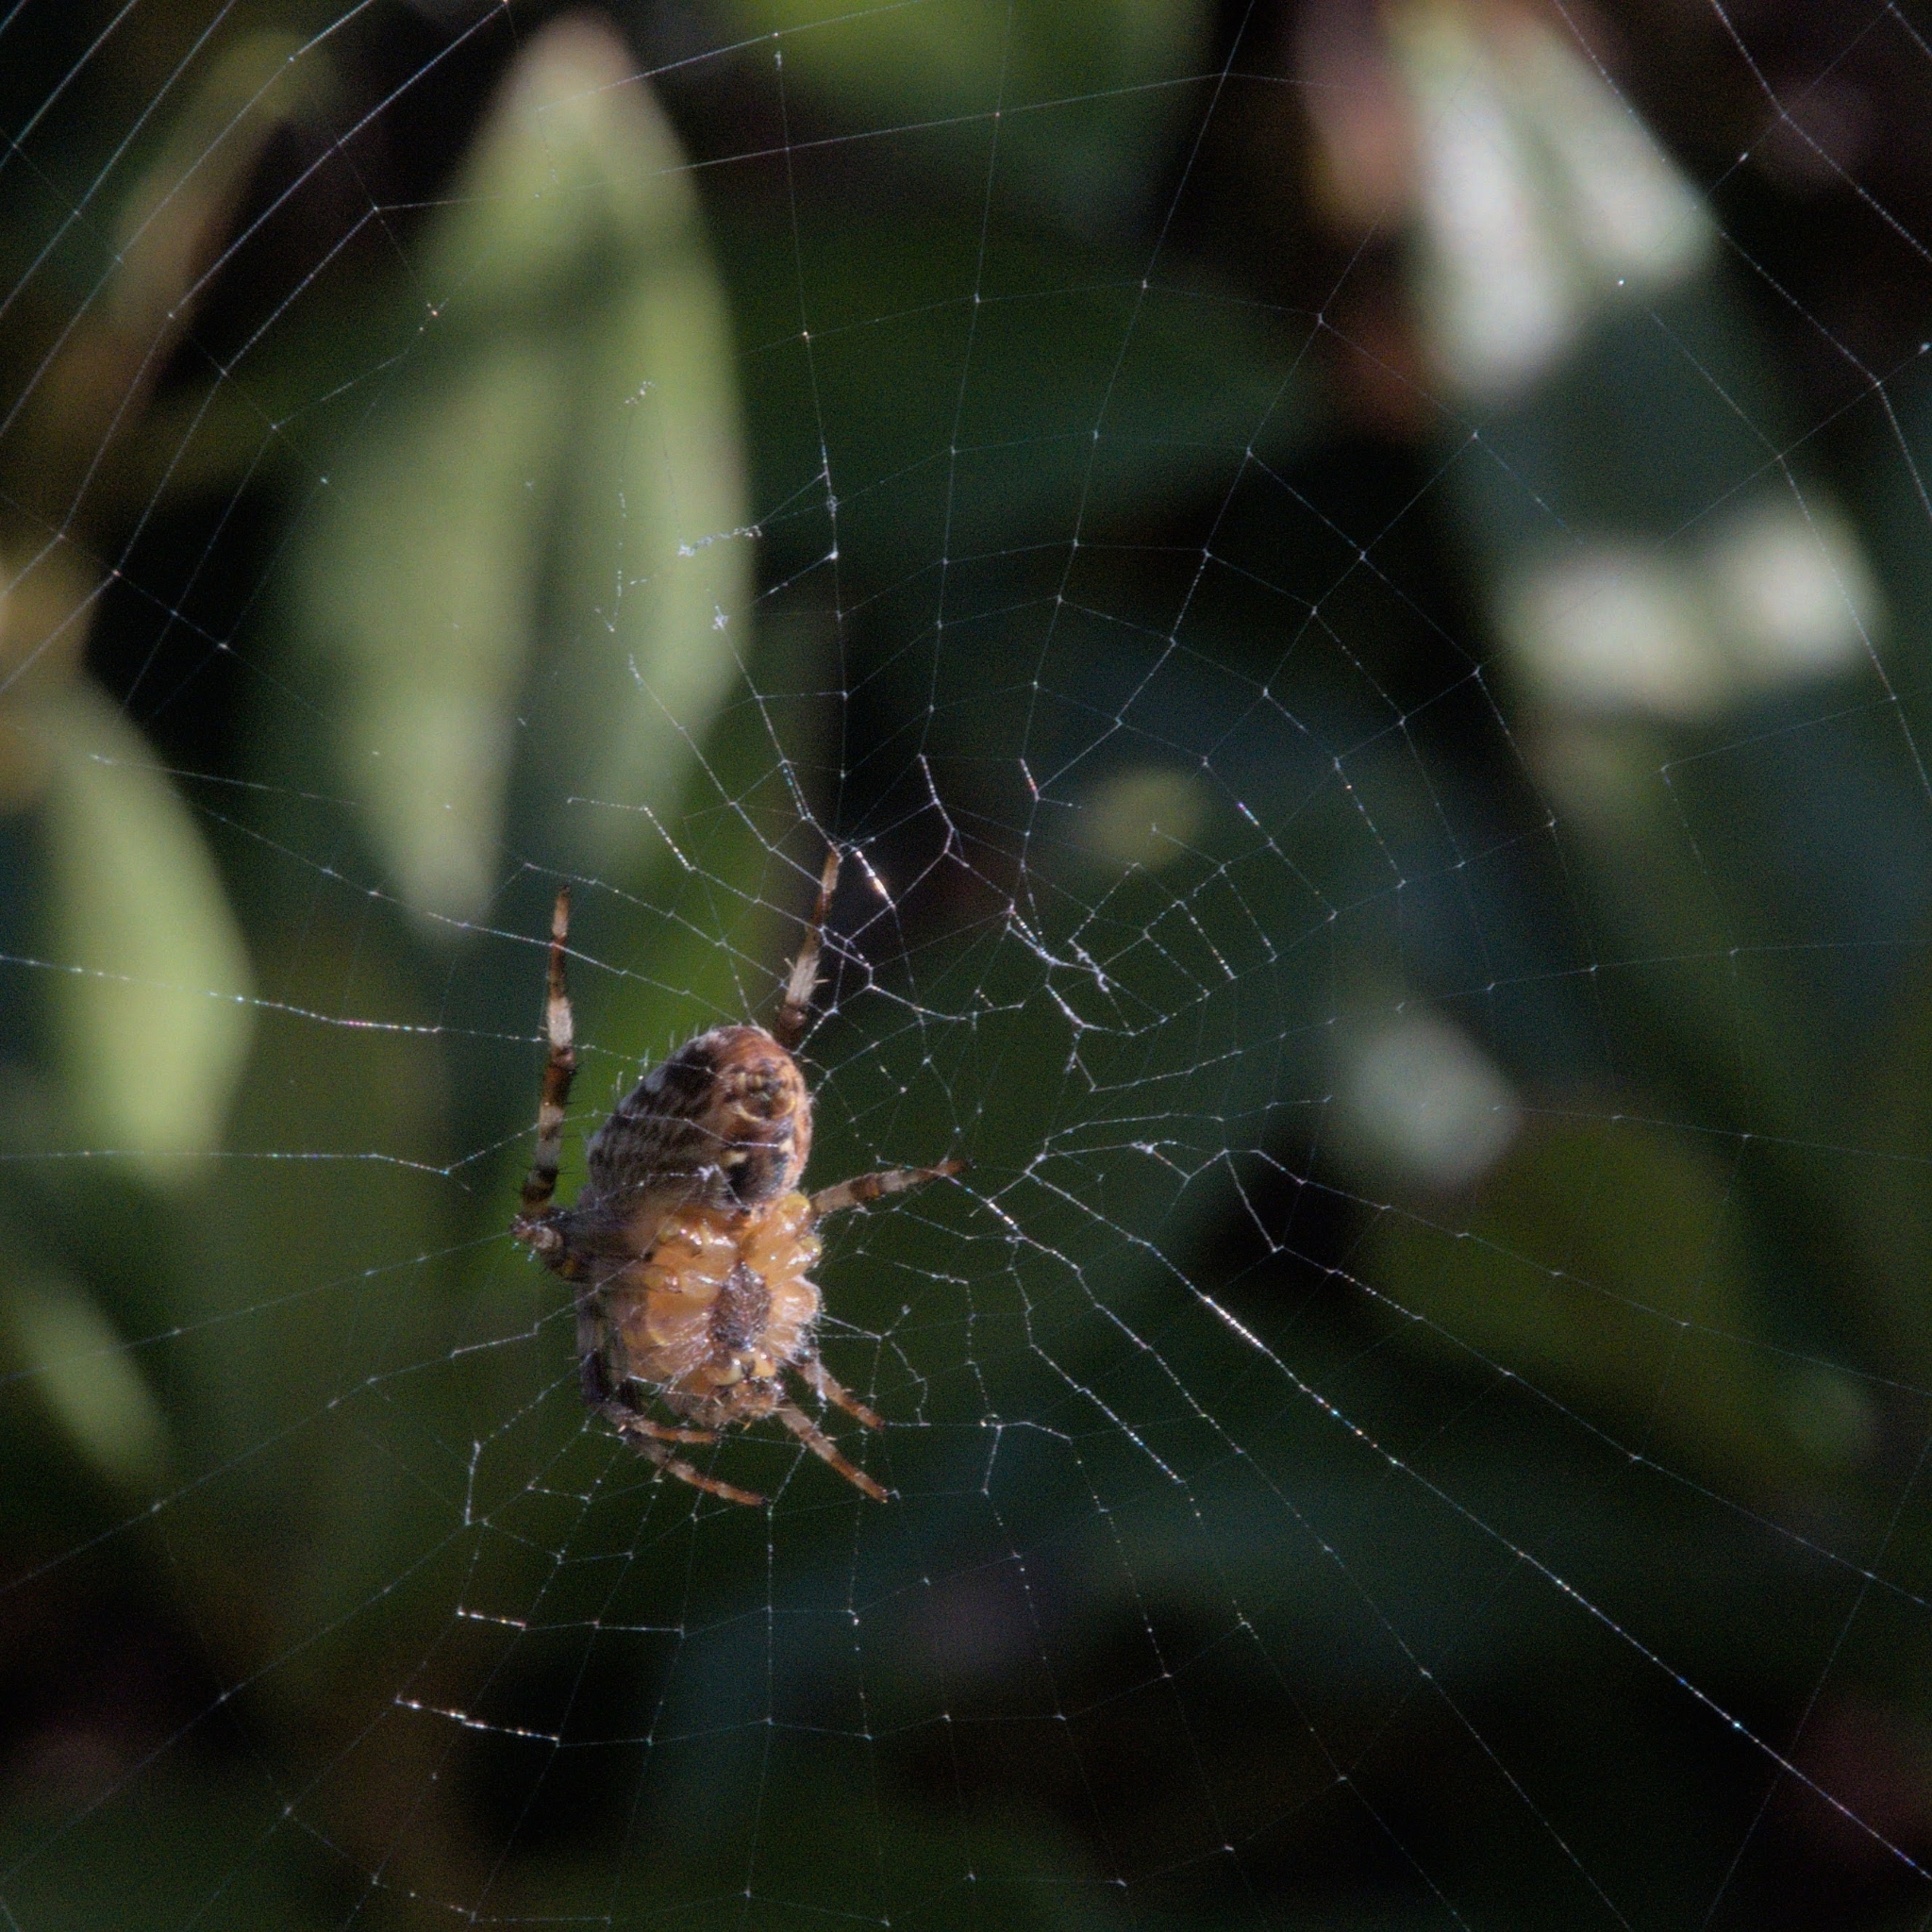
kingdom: Animalia
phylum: Arthropoda
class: Arachnida
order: Araneae
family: Araneidae
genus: Araneus
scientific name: Araneus diadematus
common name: Cross orbweaver
